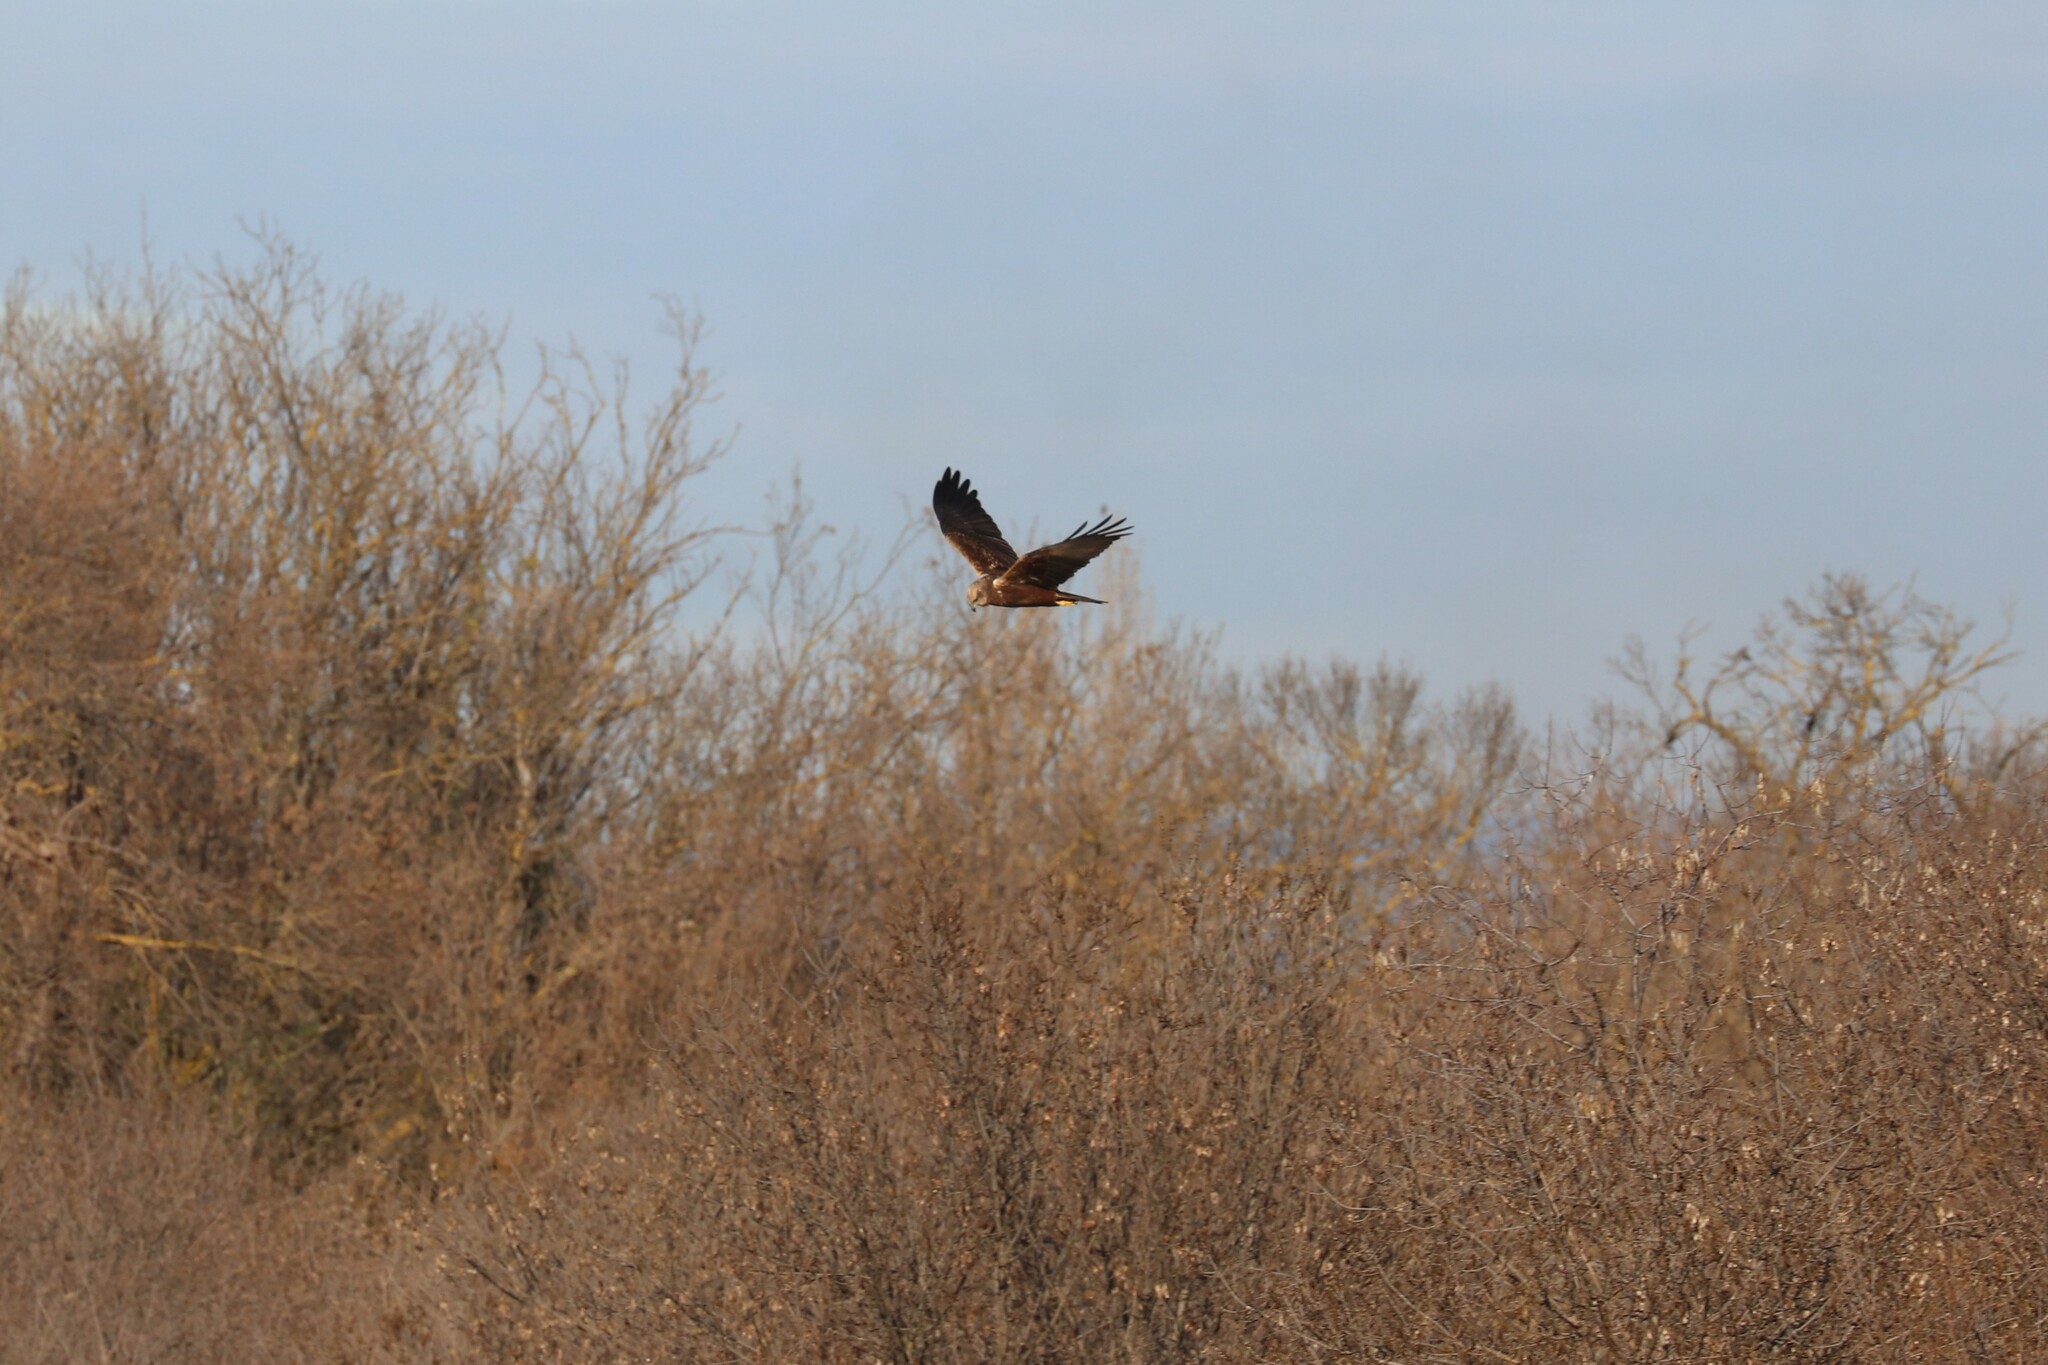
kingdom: Animalia
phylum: Chordata
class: Aves
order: Accipitriformes
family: Accipitridae
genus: Circus
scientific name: Circus aeruginosus
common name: Western marsh harrier
